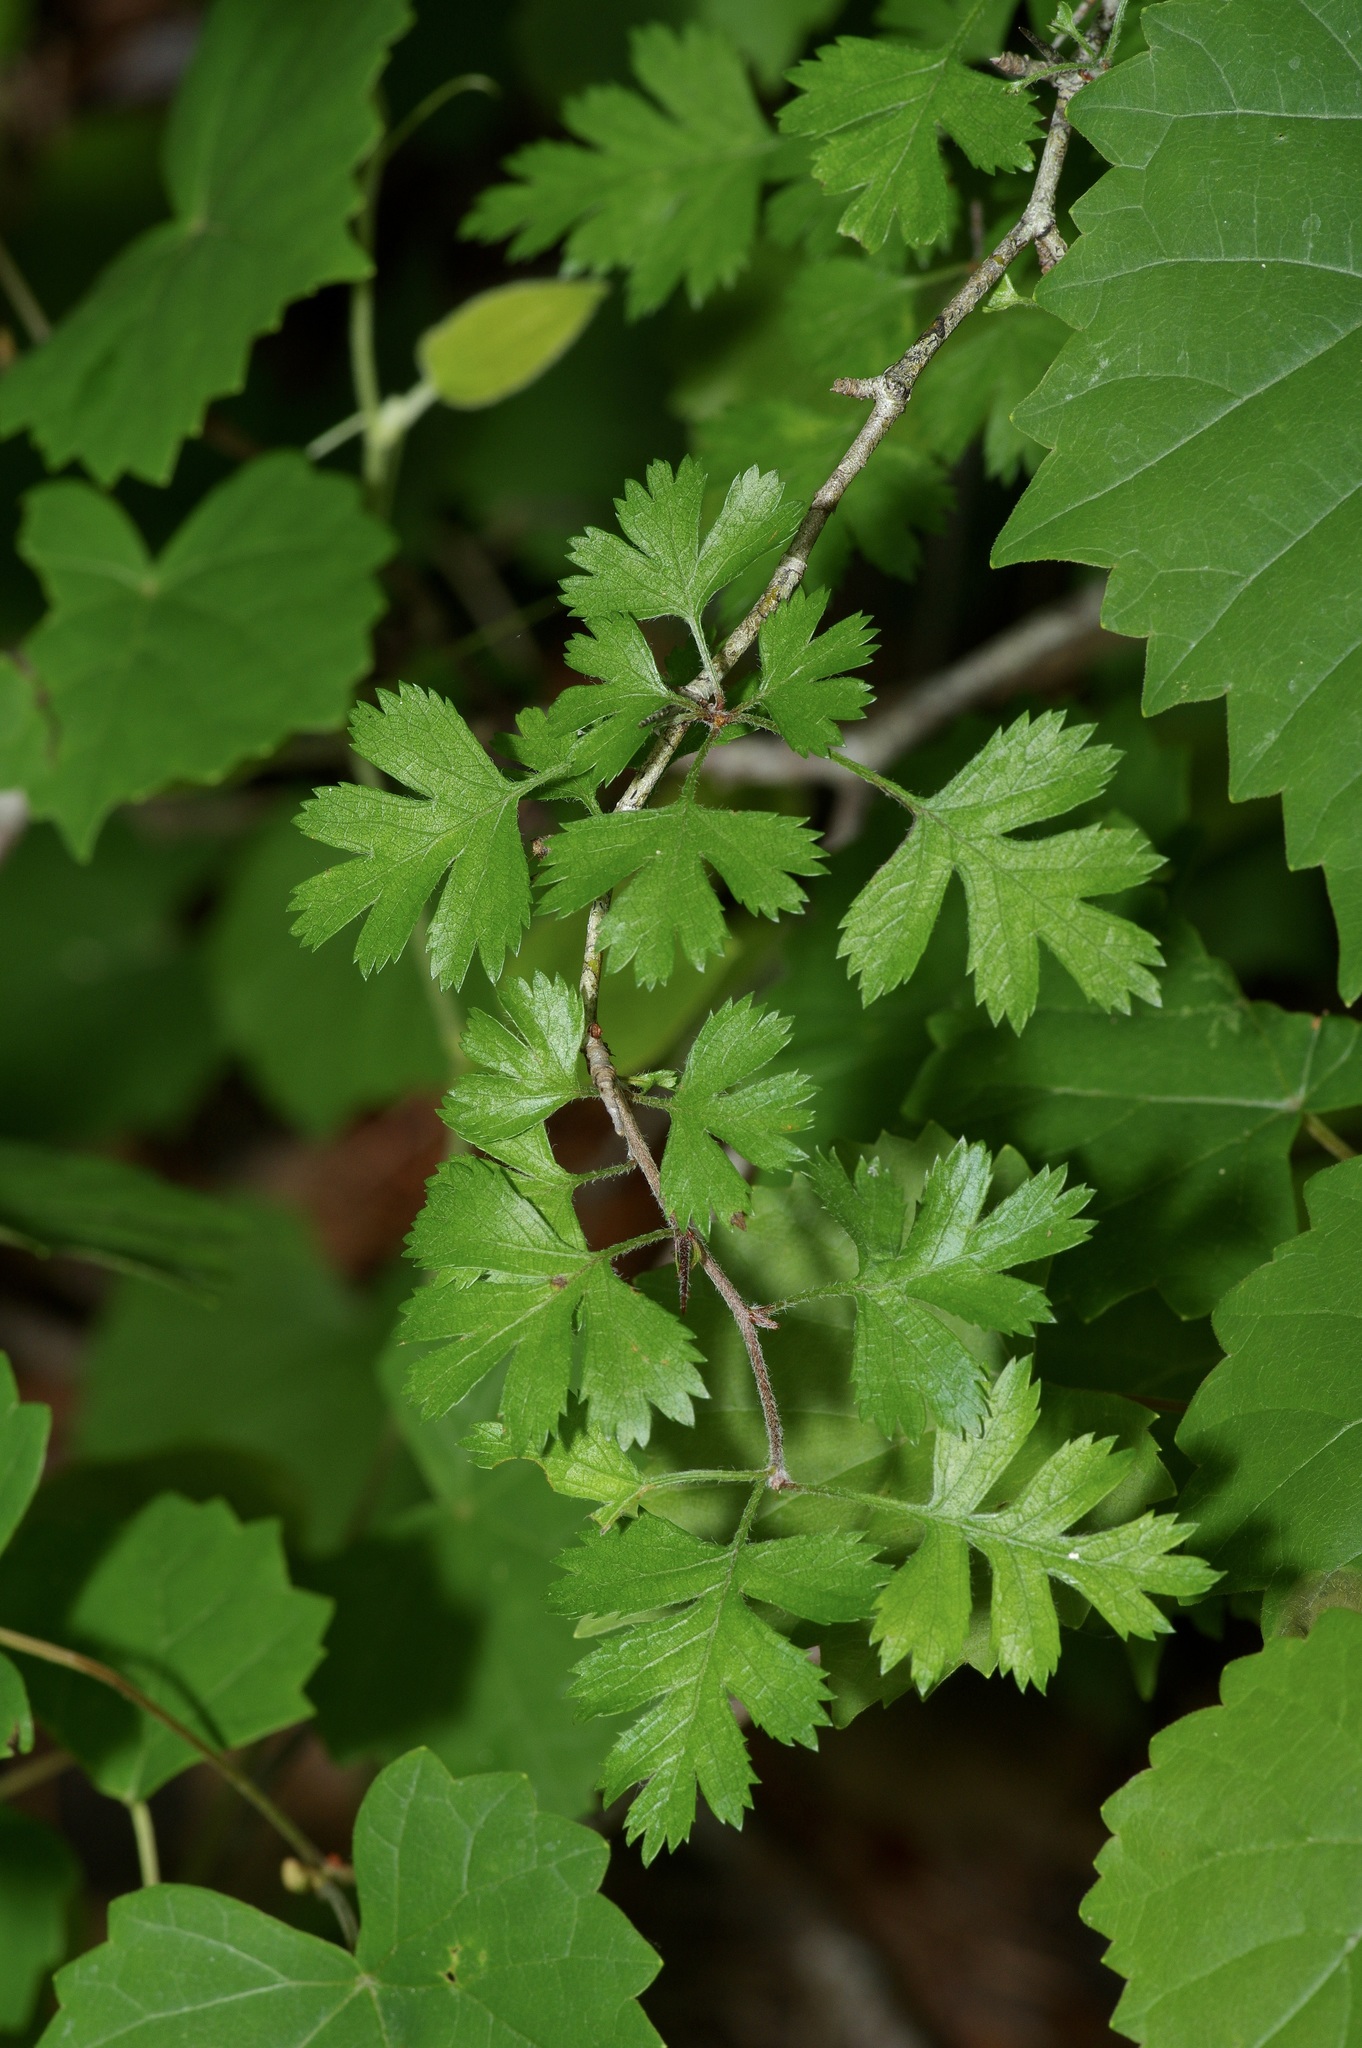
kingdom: Plantae
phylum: Tracheophyta
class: Magnoliopsida
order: Rosales
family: Rosaceae
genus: Crataegus
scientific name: Crataegus marshallii
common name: Parsley-hawthorn
